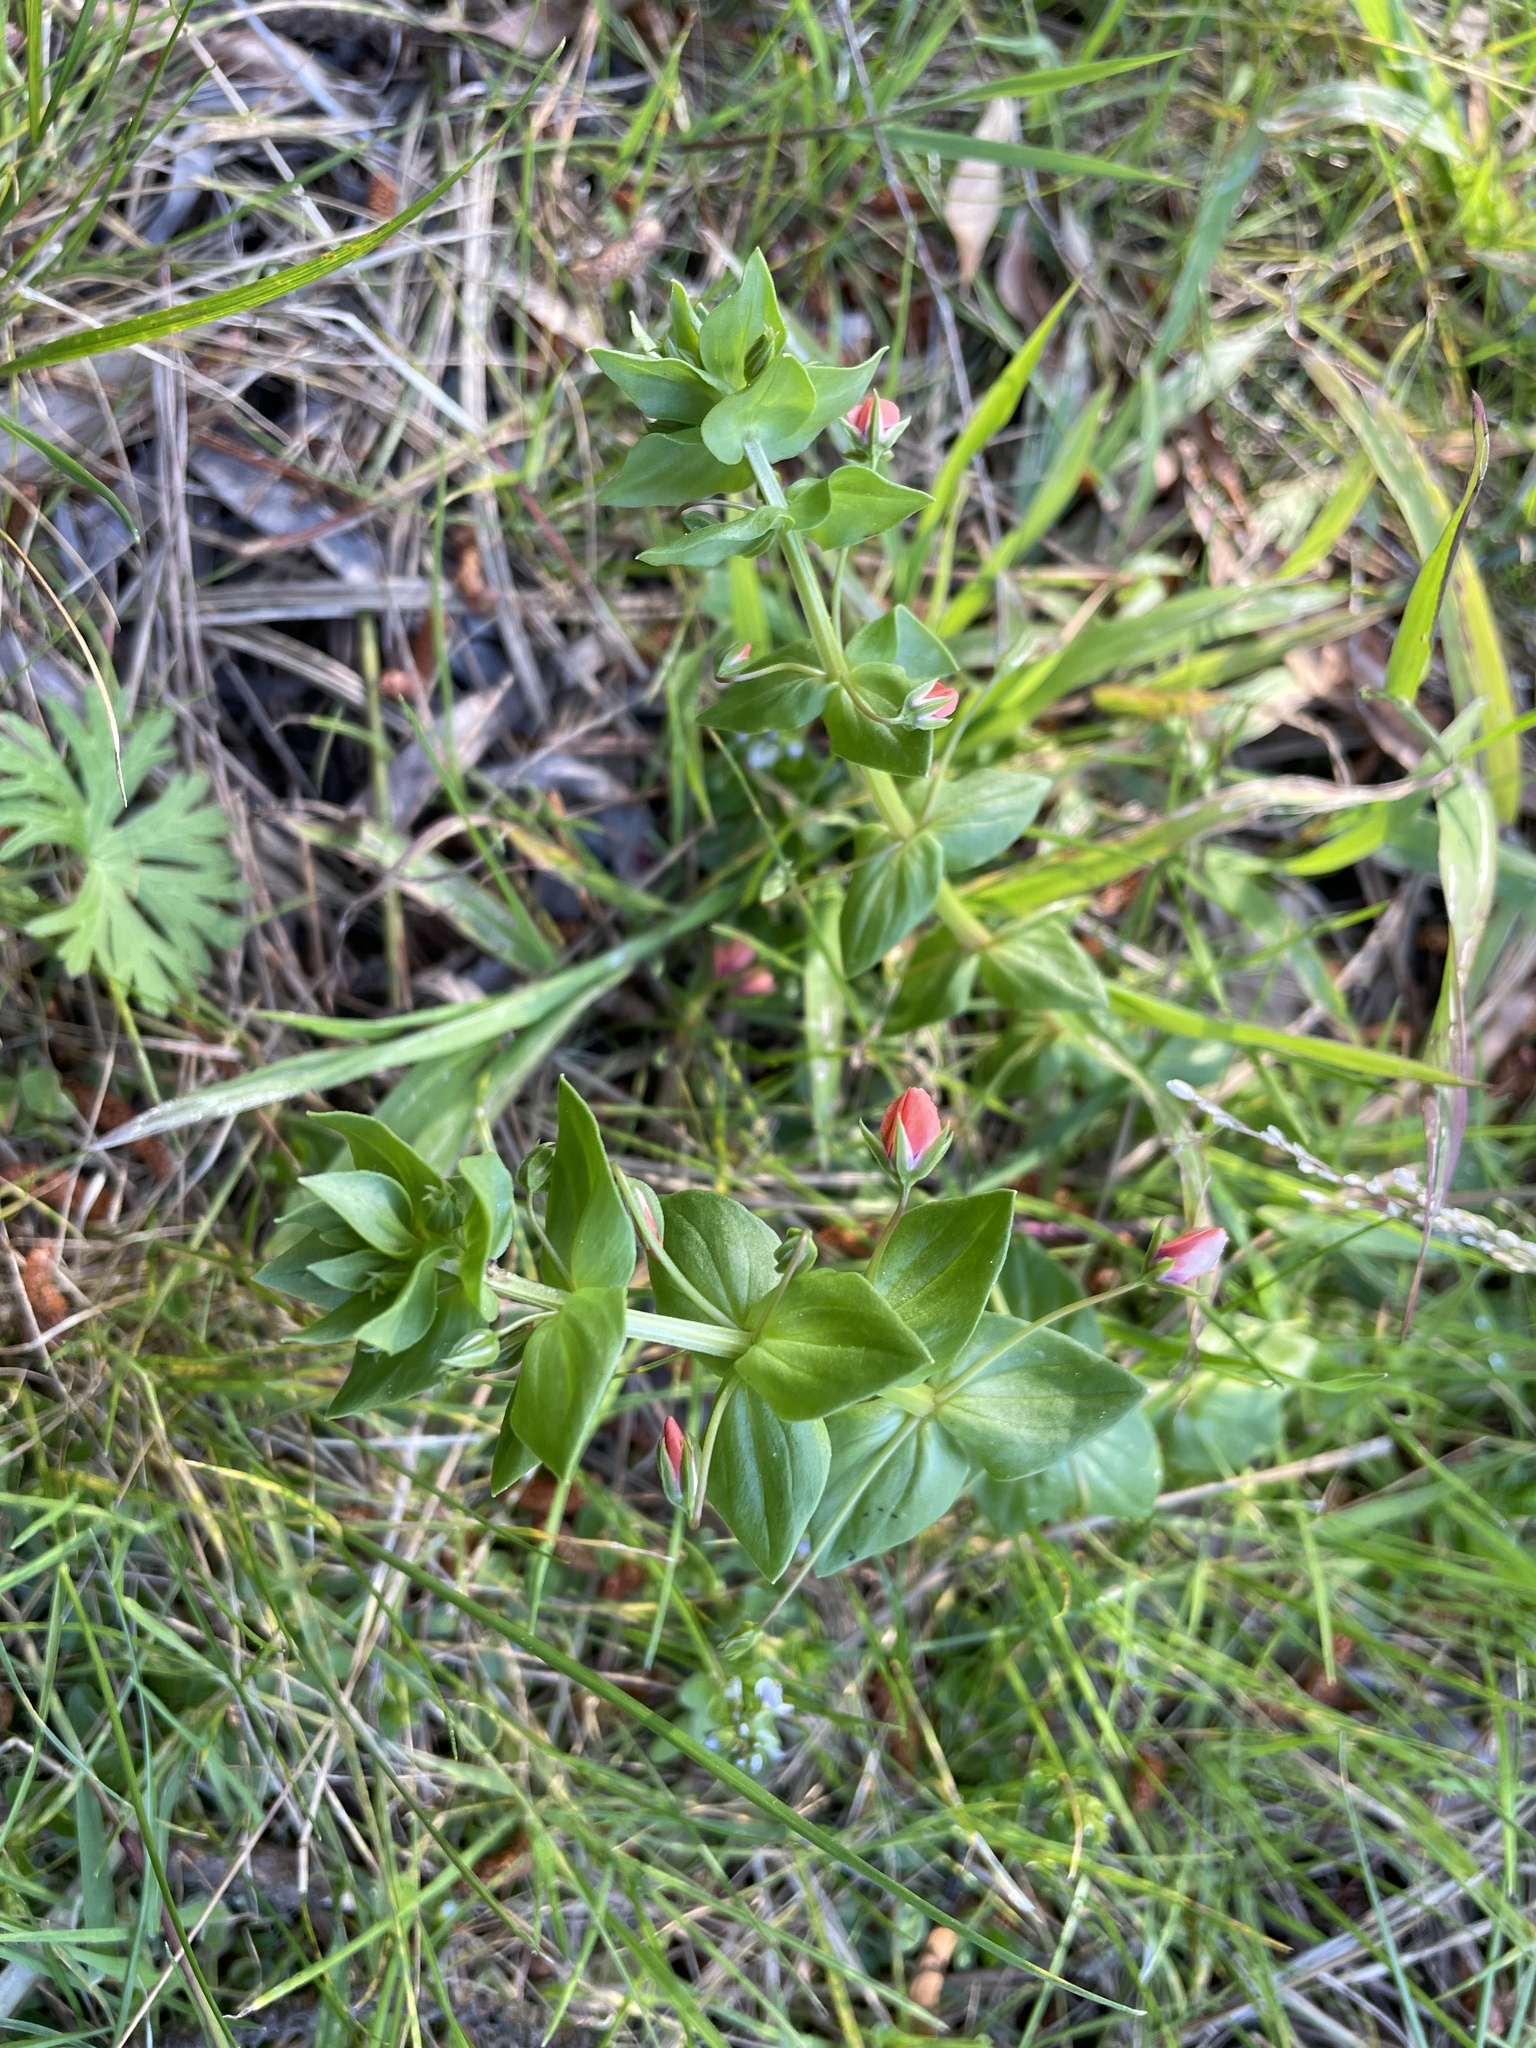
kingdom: Plantae
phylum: Tracheophyta
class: Magnoliopsida
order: Ericales
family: Primulaceae
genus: Lysimachia
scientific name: Lysimachia arvensis
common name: Scarlet pimpernel
